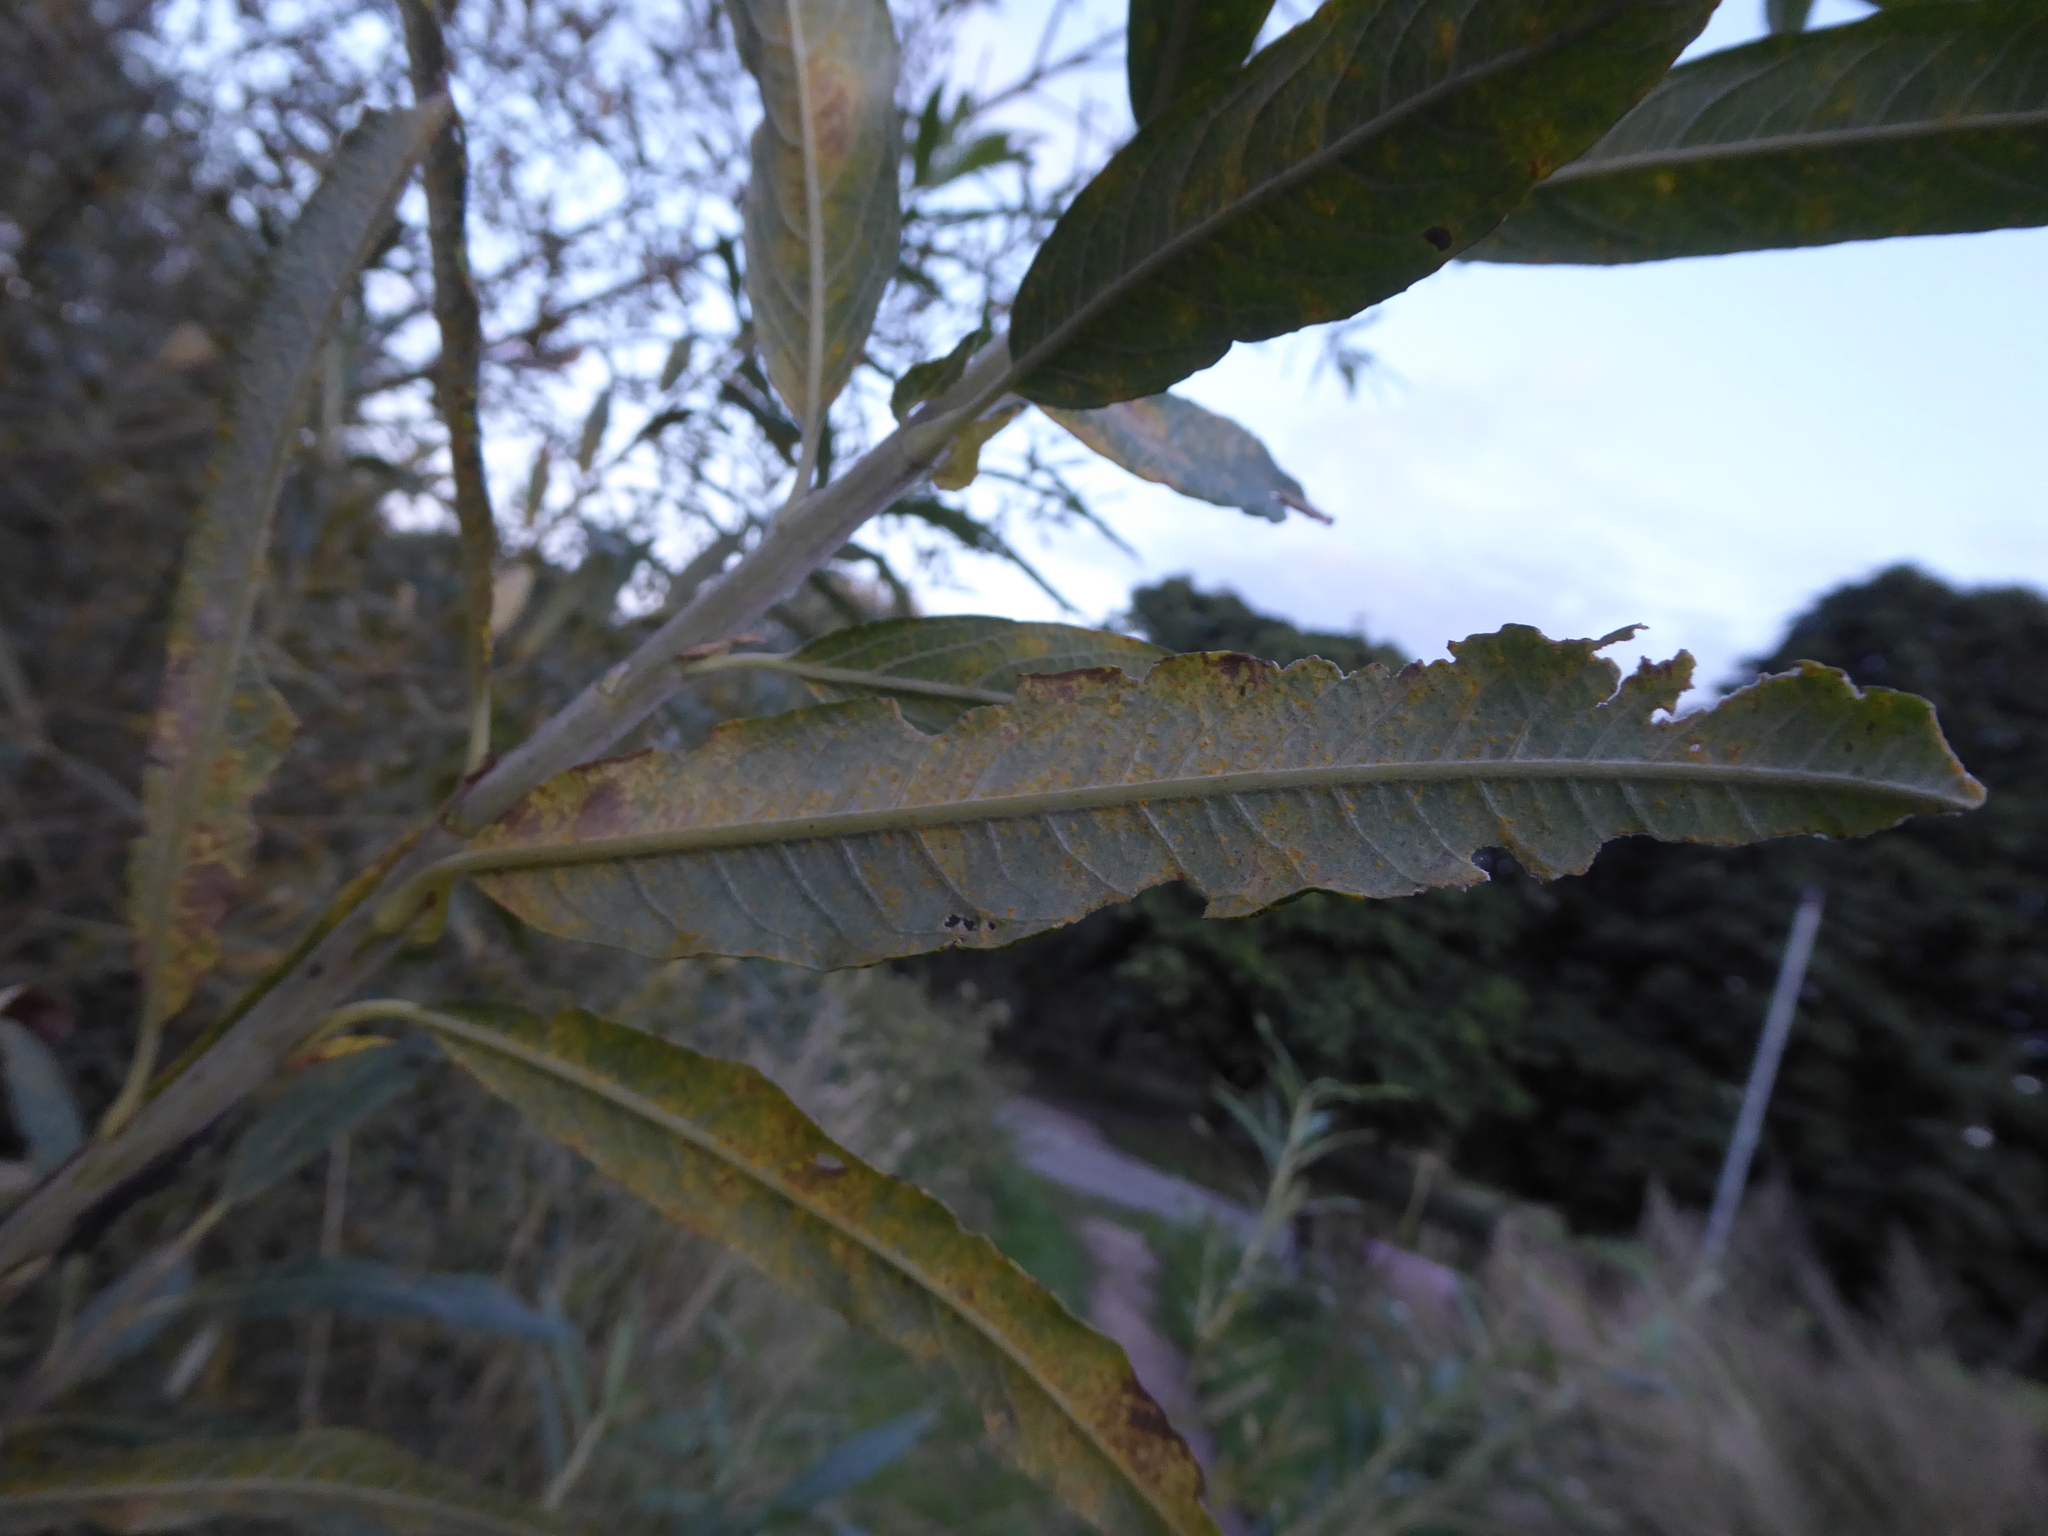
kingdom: Fungi
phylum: Basidiomycota
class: Pucciniomycetes
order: Pucciniales
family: Melampsoraceae
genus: Melampsora
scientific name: Melampsora
